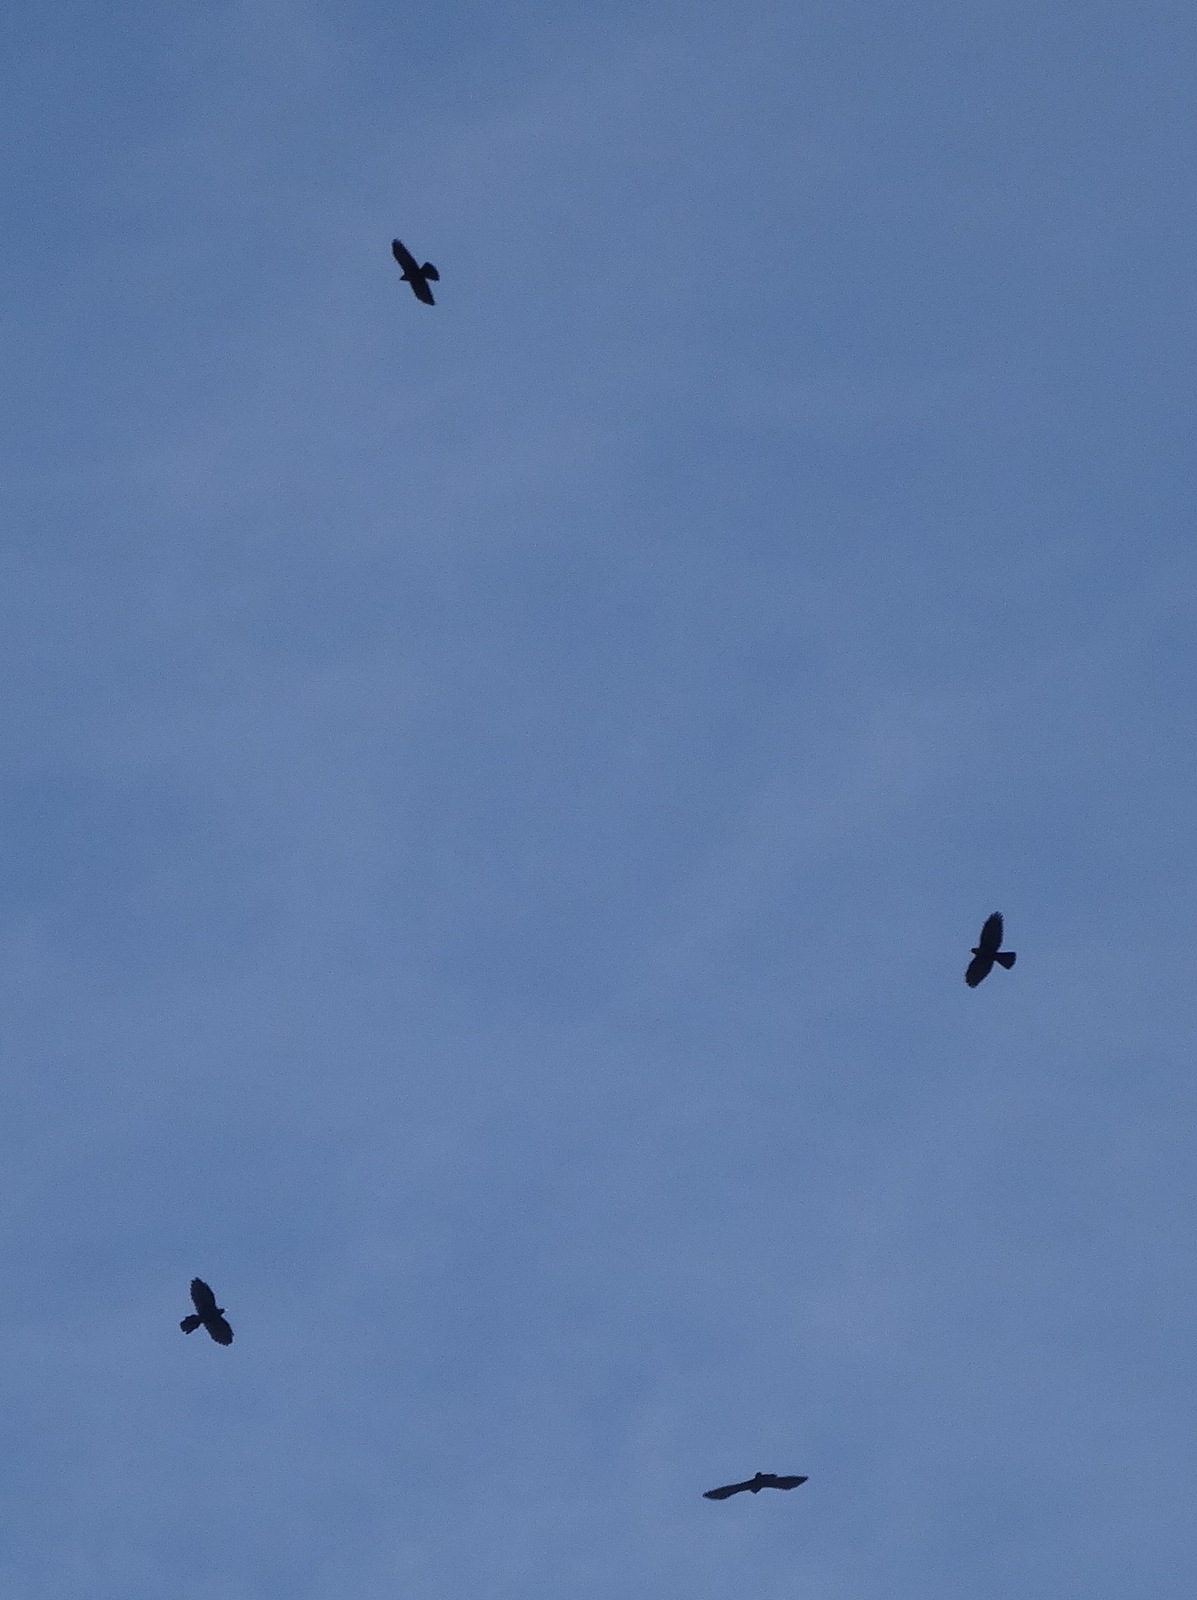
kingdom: Animalia
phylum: Chordata
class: Aves
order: Passeriformes
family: Corvidae
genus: Pyrrhocorax
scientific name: Pyrrhocorax graculus
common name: Alpine chough
